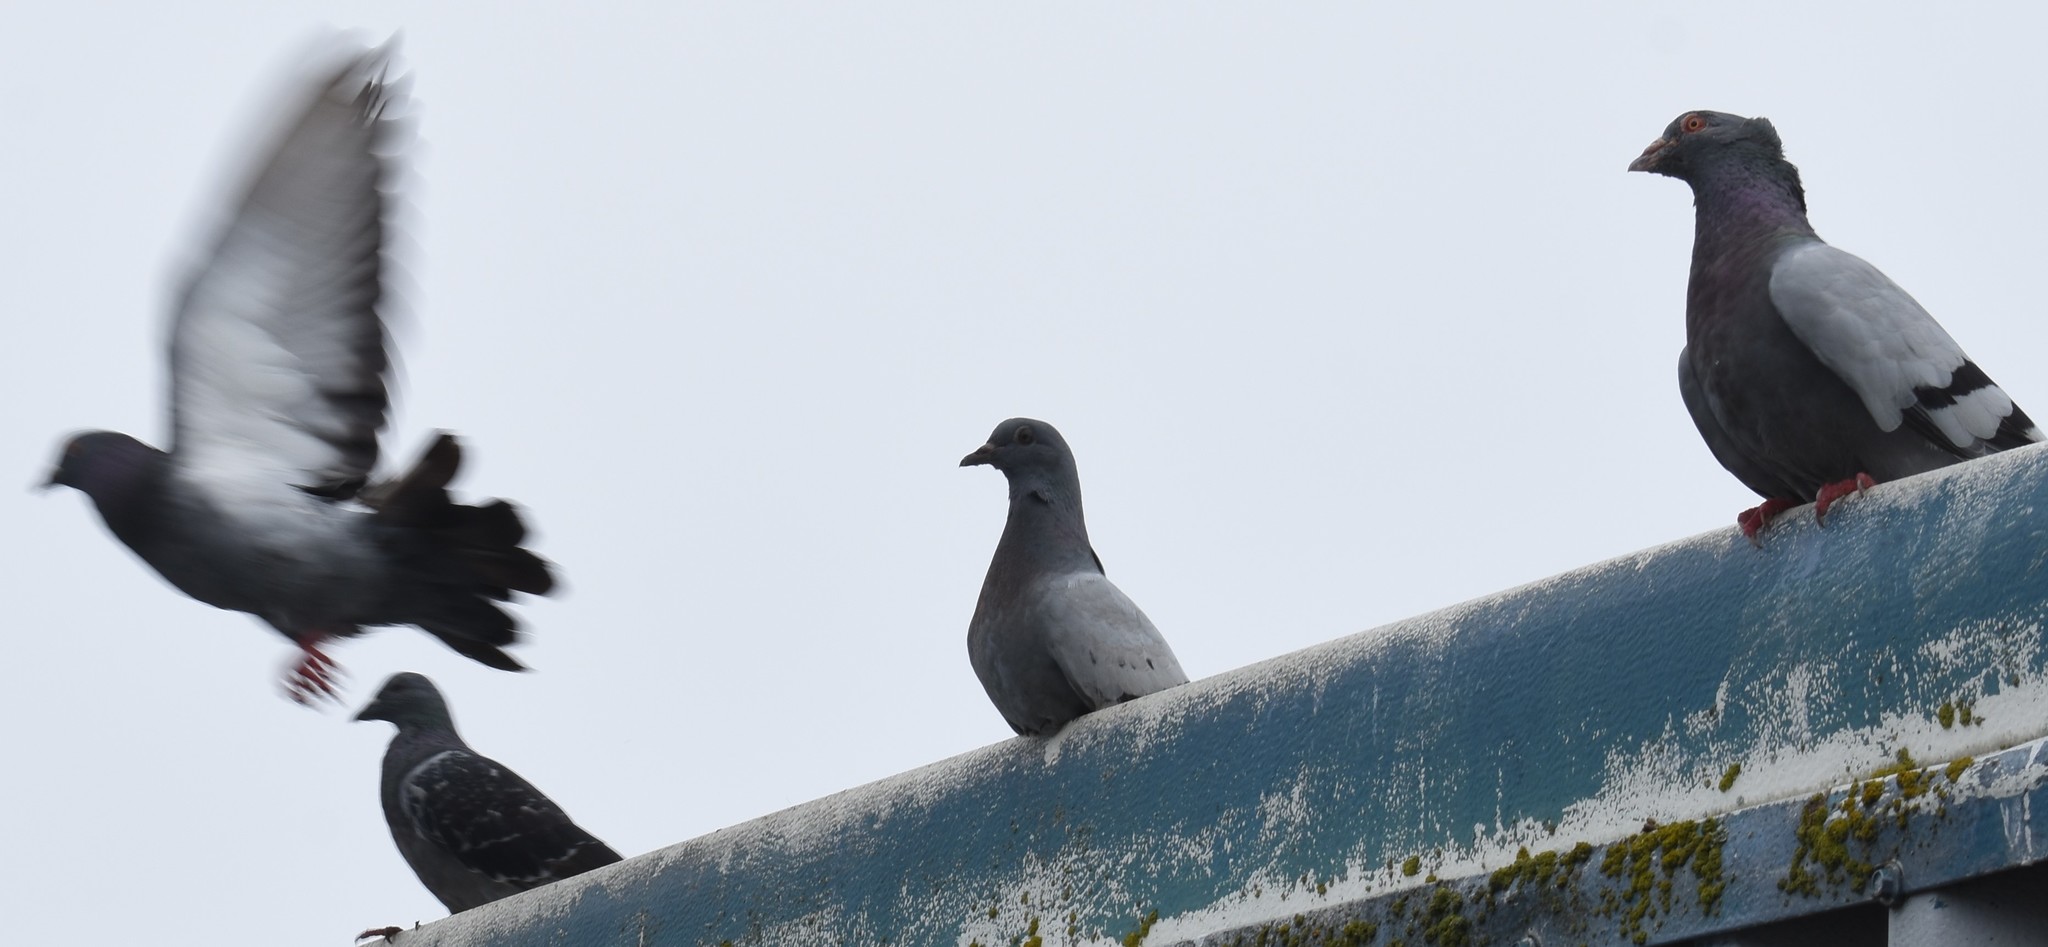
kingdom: Animalia
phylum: Chordata
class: Aves
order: Columbiformes
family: Columbidae
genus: Columba
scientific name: Columba livia
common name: Rock pigeon
